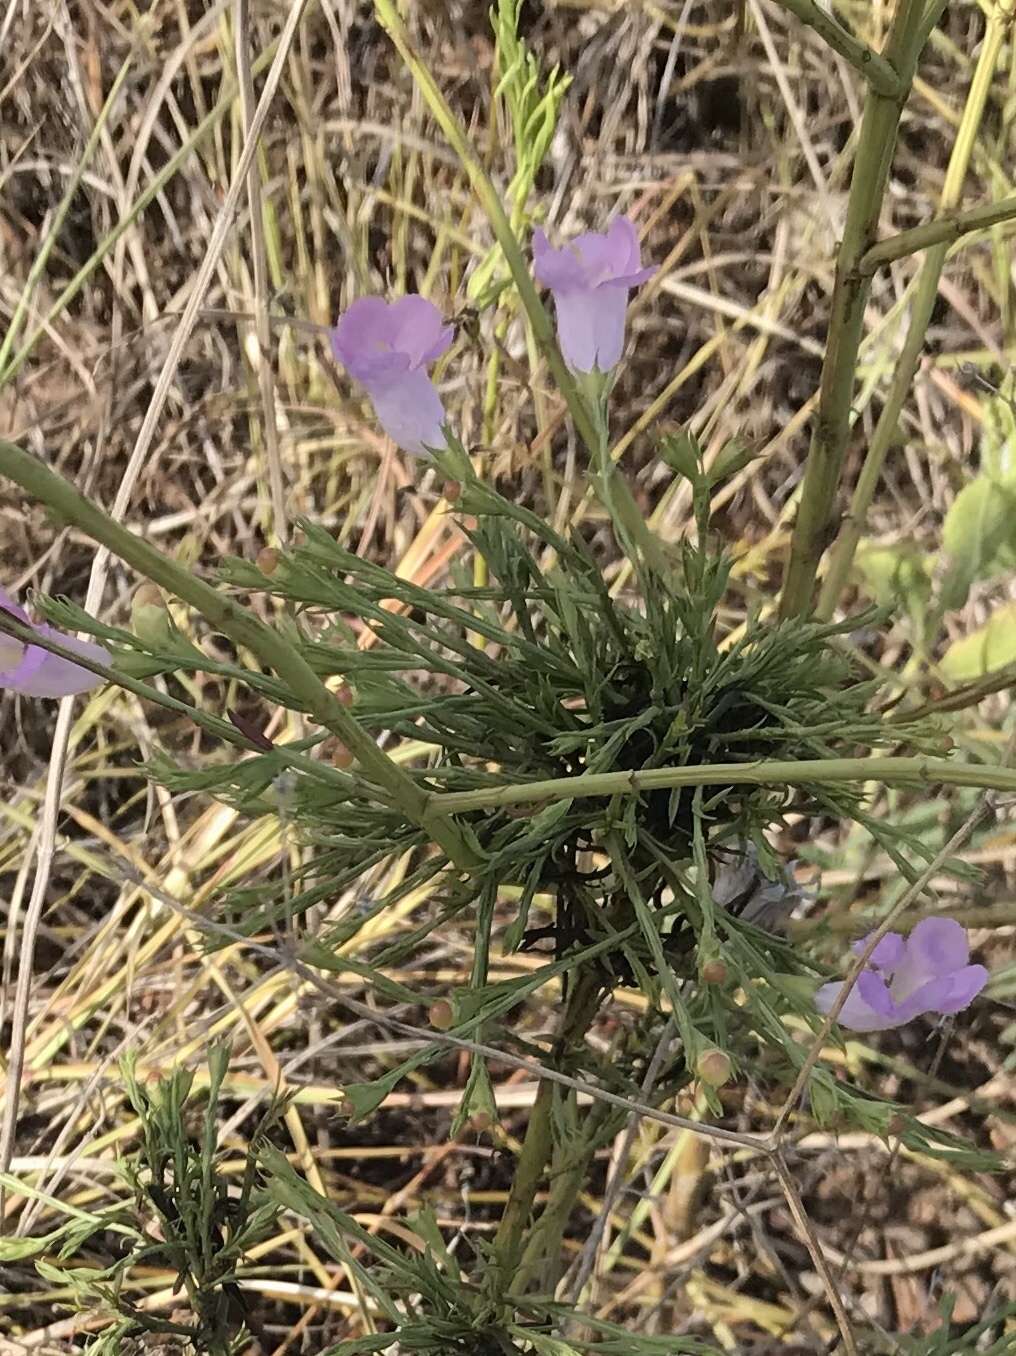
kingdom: Plantae
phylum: Tracheophyta
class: Magnoliopsida
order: Lamiales
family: Orobanchaceae
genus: Agalinis
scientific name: Agalinis heterophylla
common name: Prairie agalinis
